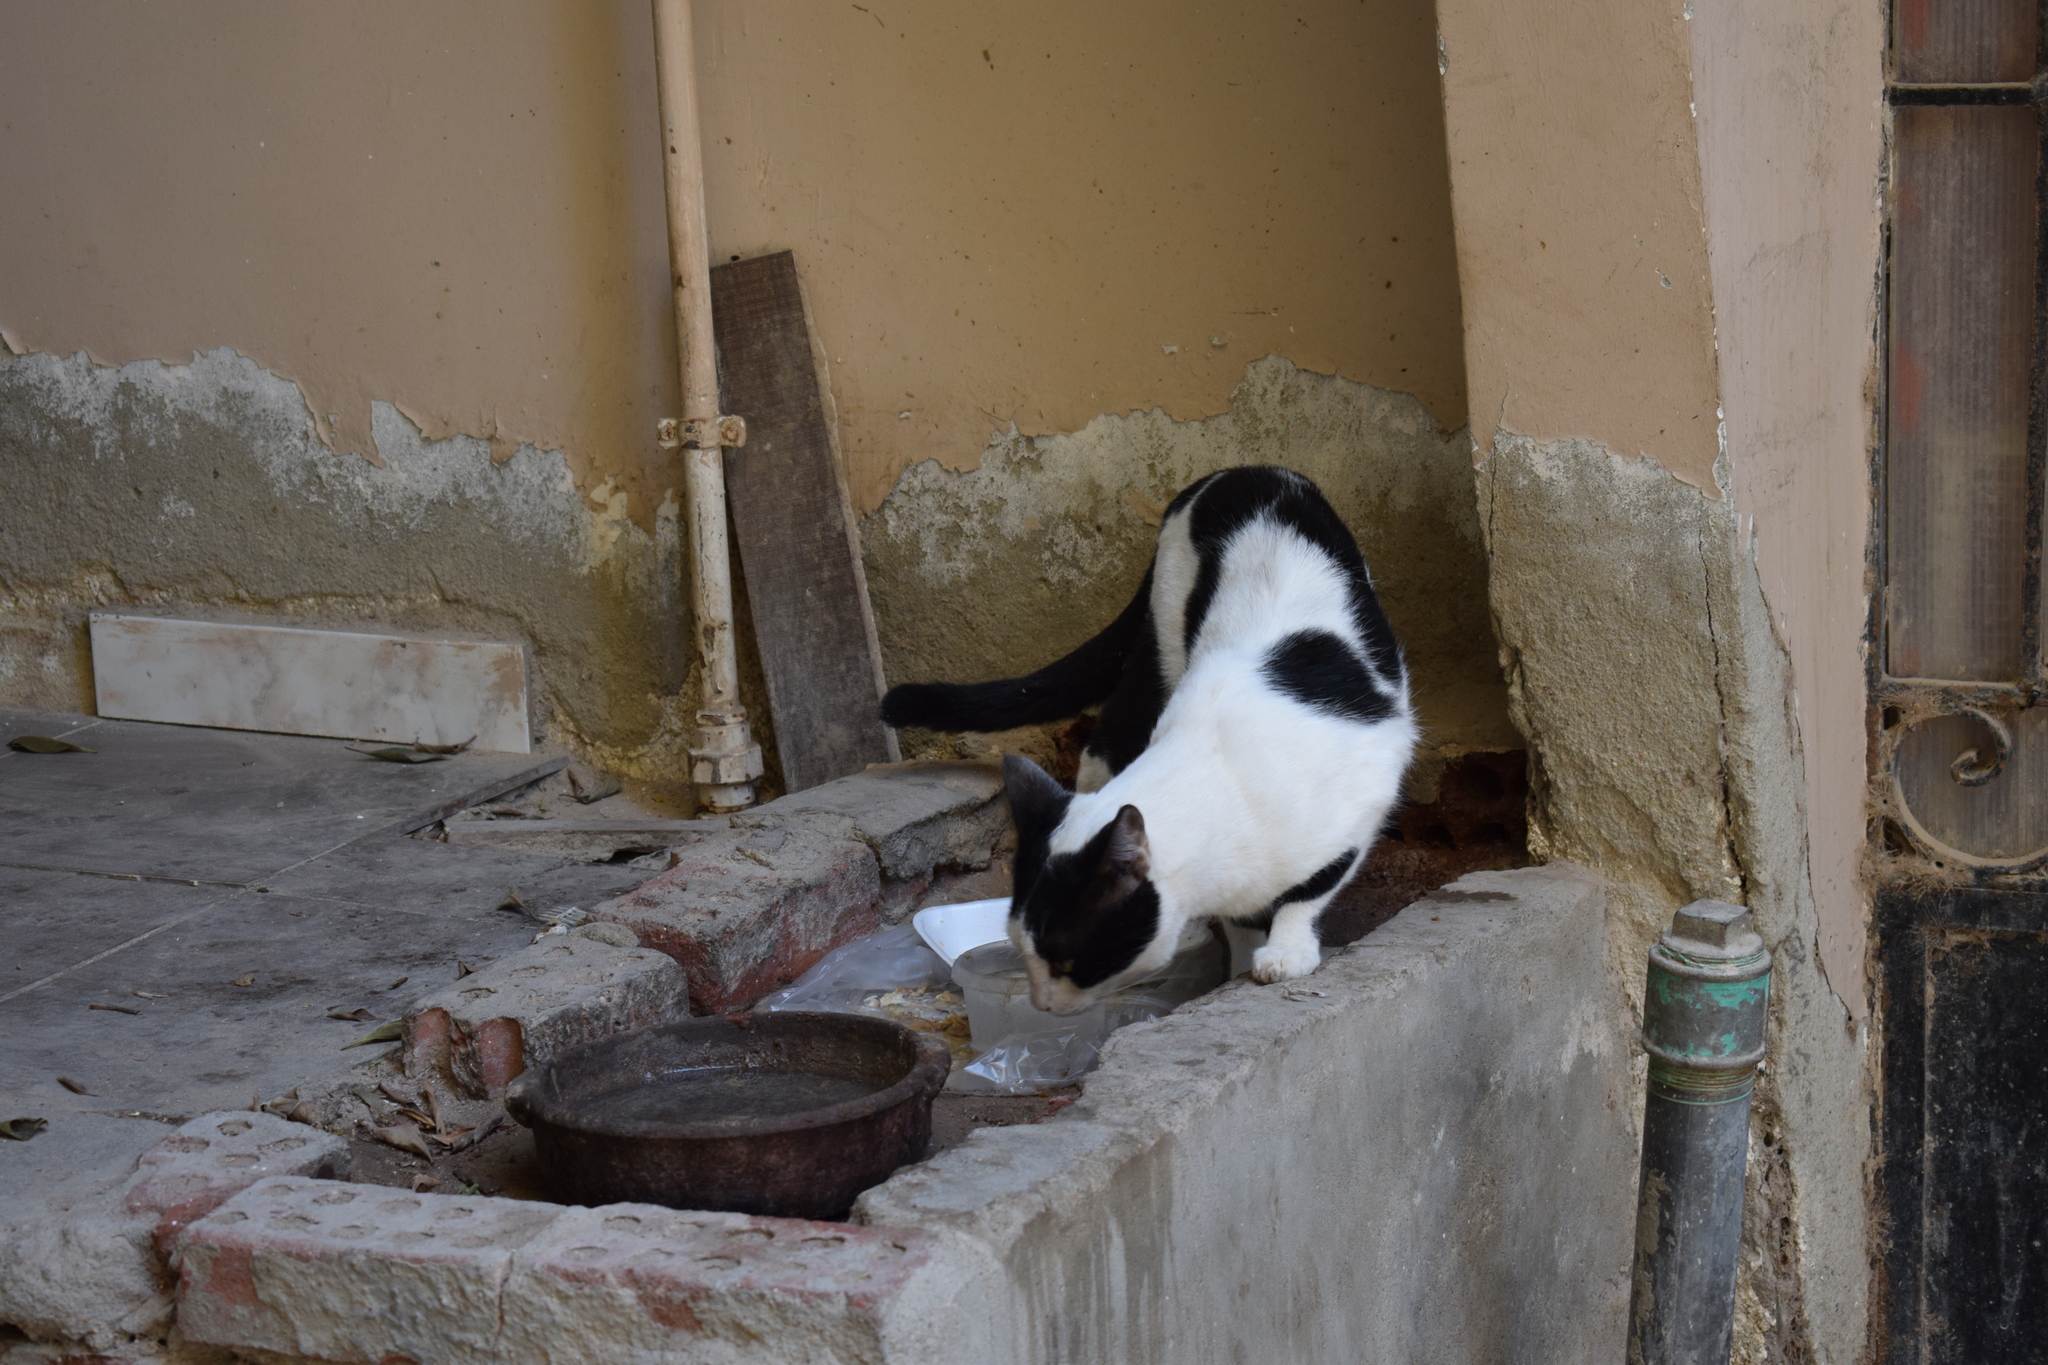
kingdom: Animalia
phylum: Chordata
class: Mammalia
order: Carnivora
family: Felidae
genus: Felis
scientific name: Felis catus
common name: Domestic cat
